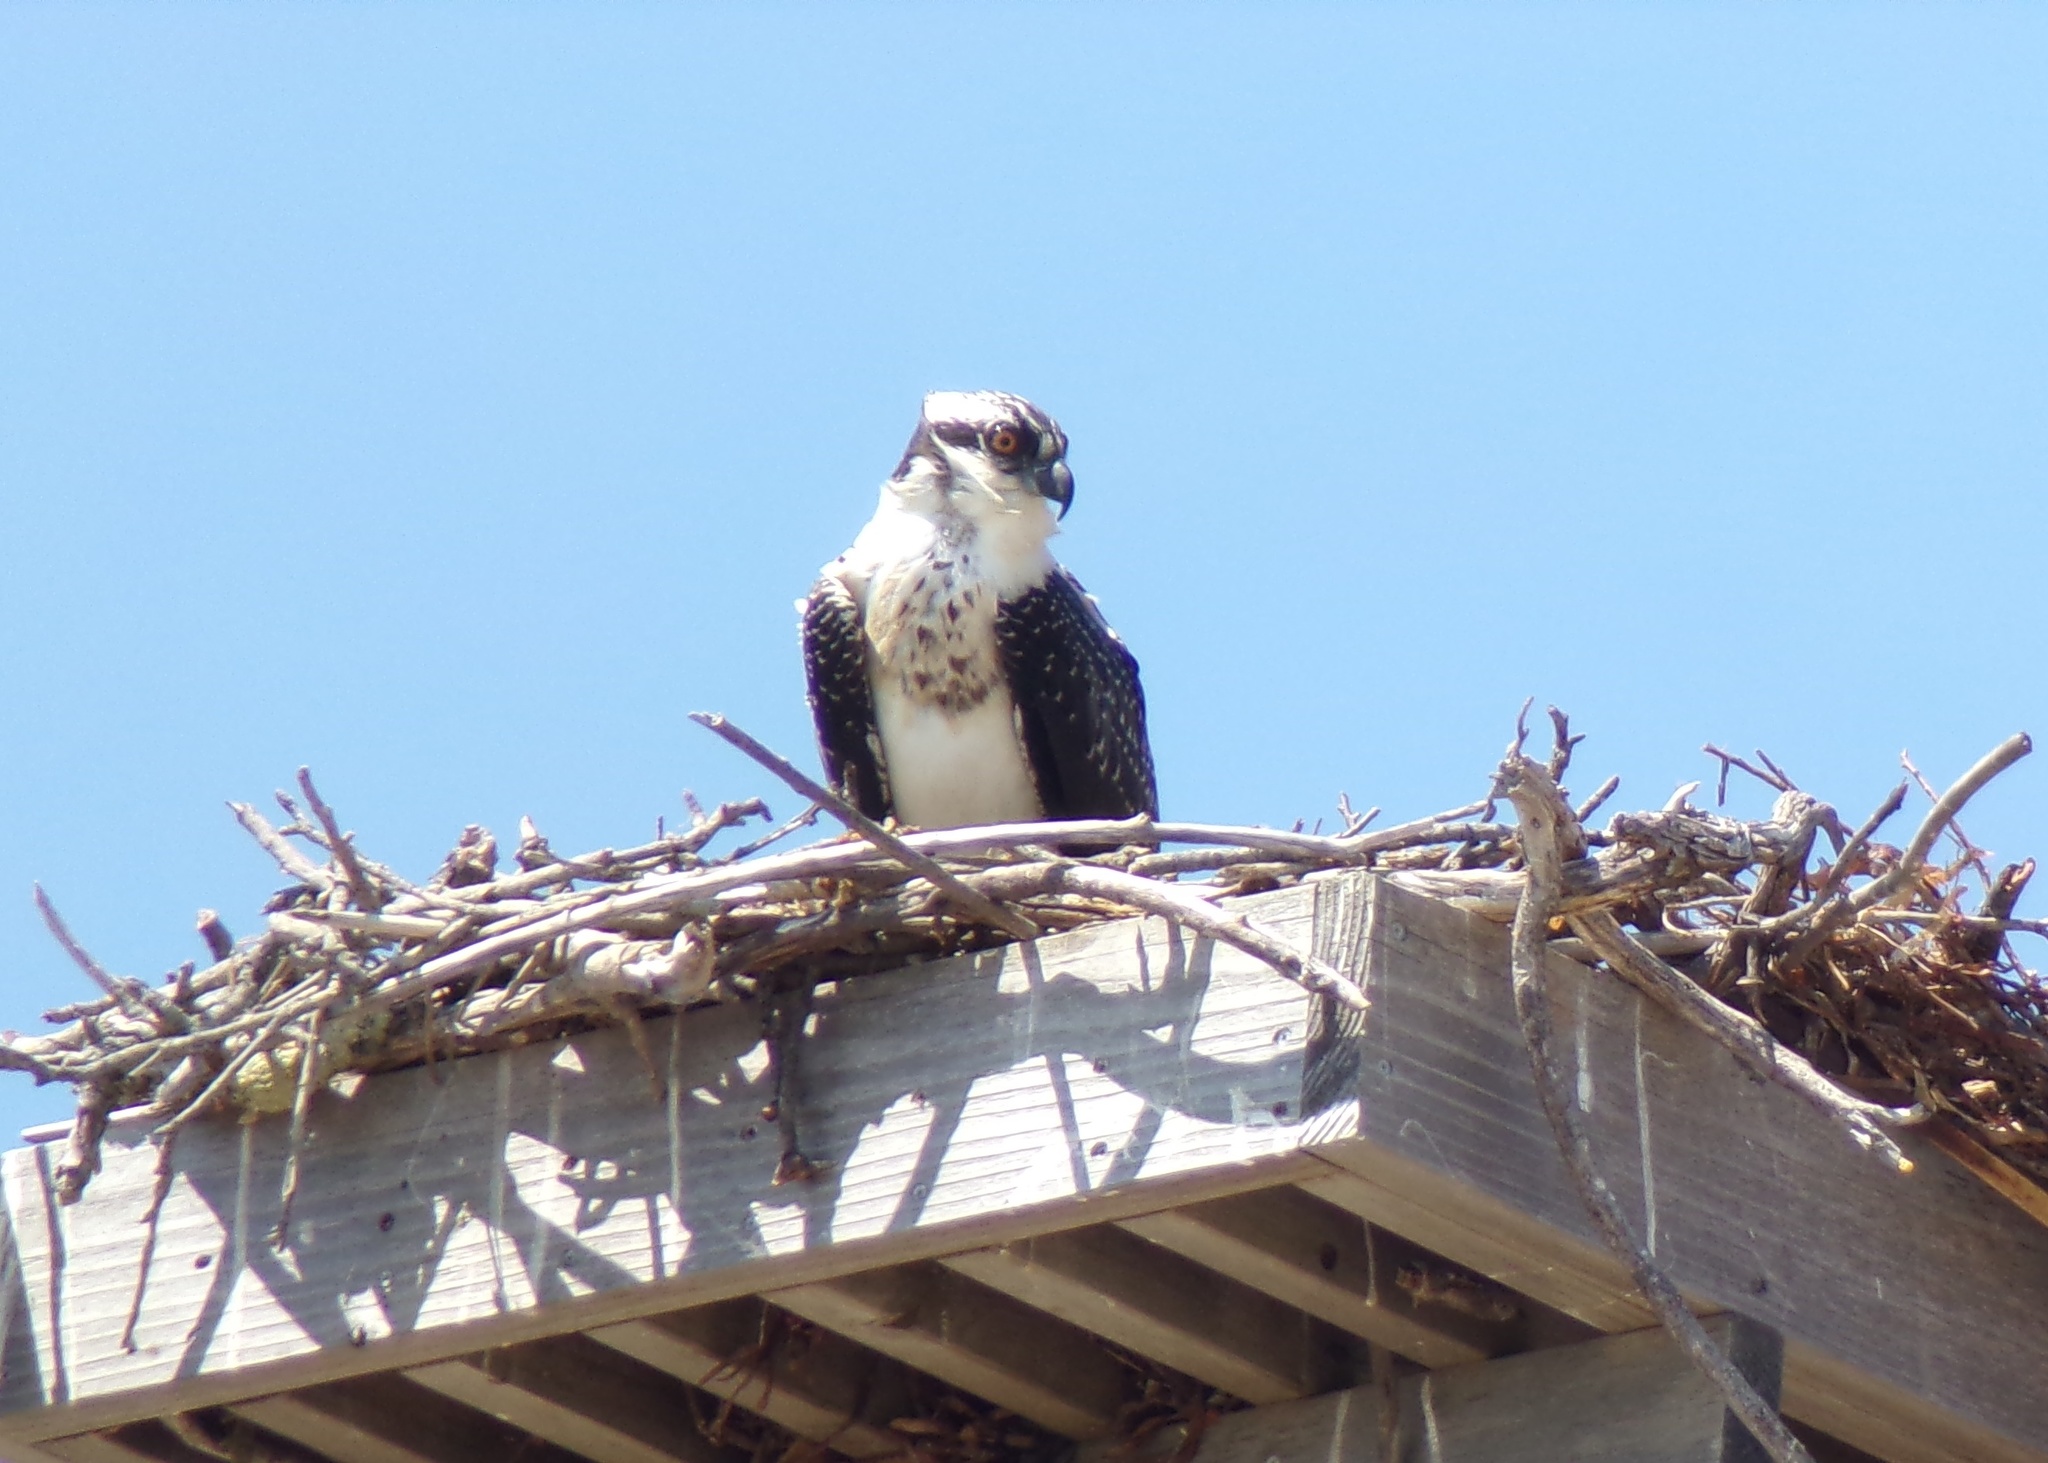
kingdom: Animalia
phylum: Chordata
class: Aves
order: Accipitriformes
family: Pandionidae
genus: Pandion
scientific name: Pandion haliaetus
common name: Osprey
